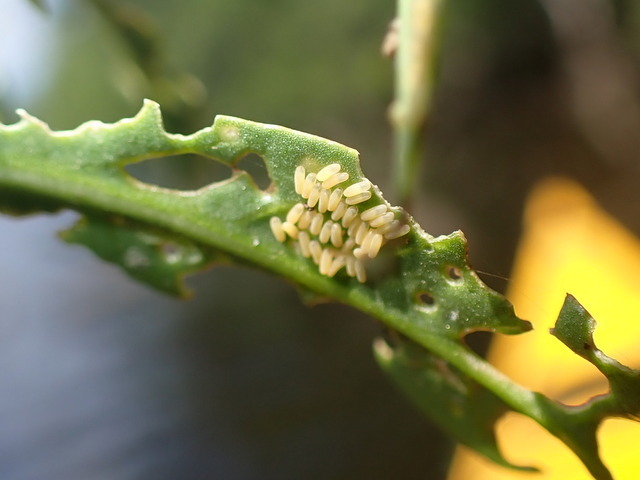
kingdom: Animalia
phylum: Arthropoda
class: Insecta
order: Coleoptera
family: Chrysomelidae
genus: Agasicles
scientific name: Agasicles hygrophila
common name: Alligatorweed flea beetle
